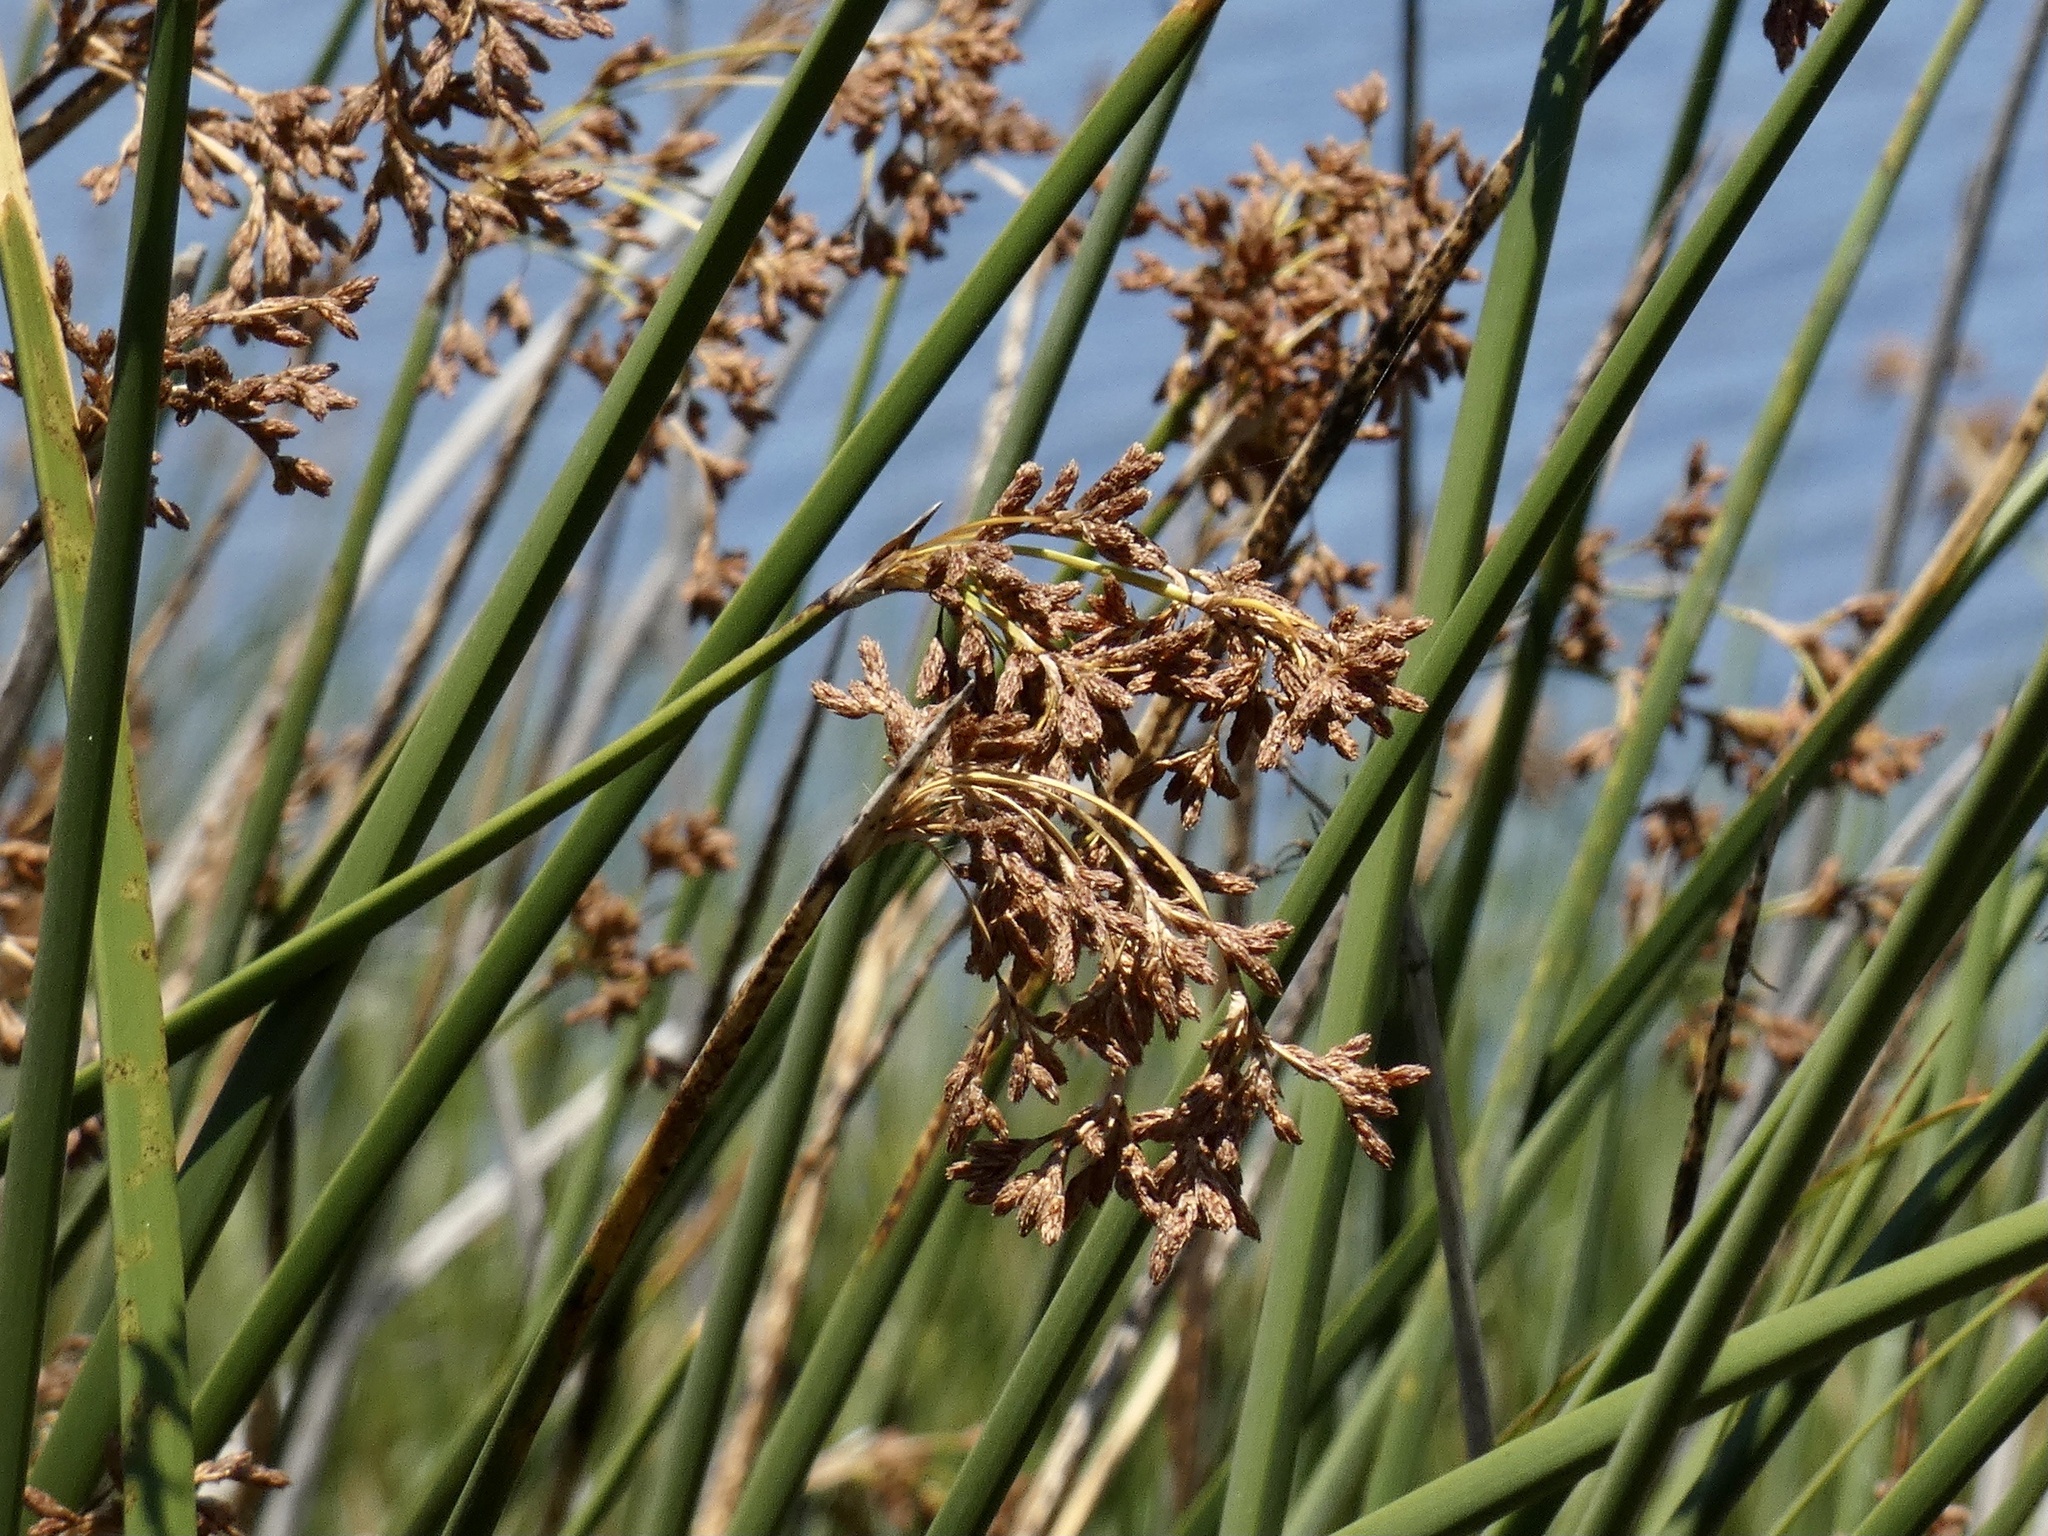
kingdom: Plantae
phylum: Tracheophyta
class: Liliopsida
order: Poales
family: Cyperaceae
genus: Schoenoplectus
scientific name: Schoenoplectus californicus
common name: California bulrush
